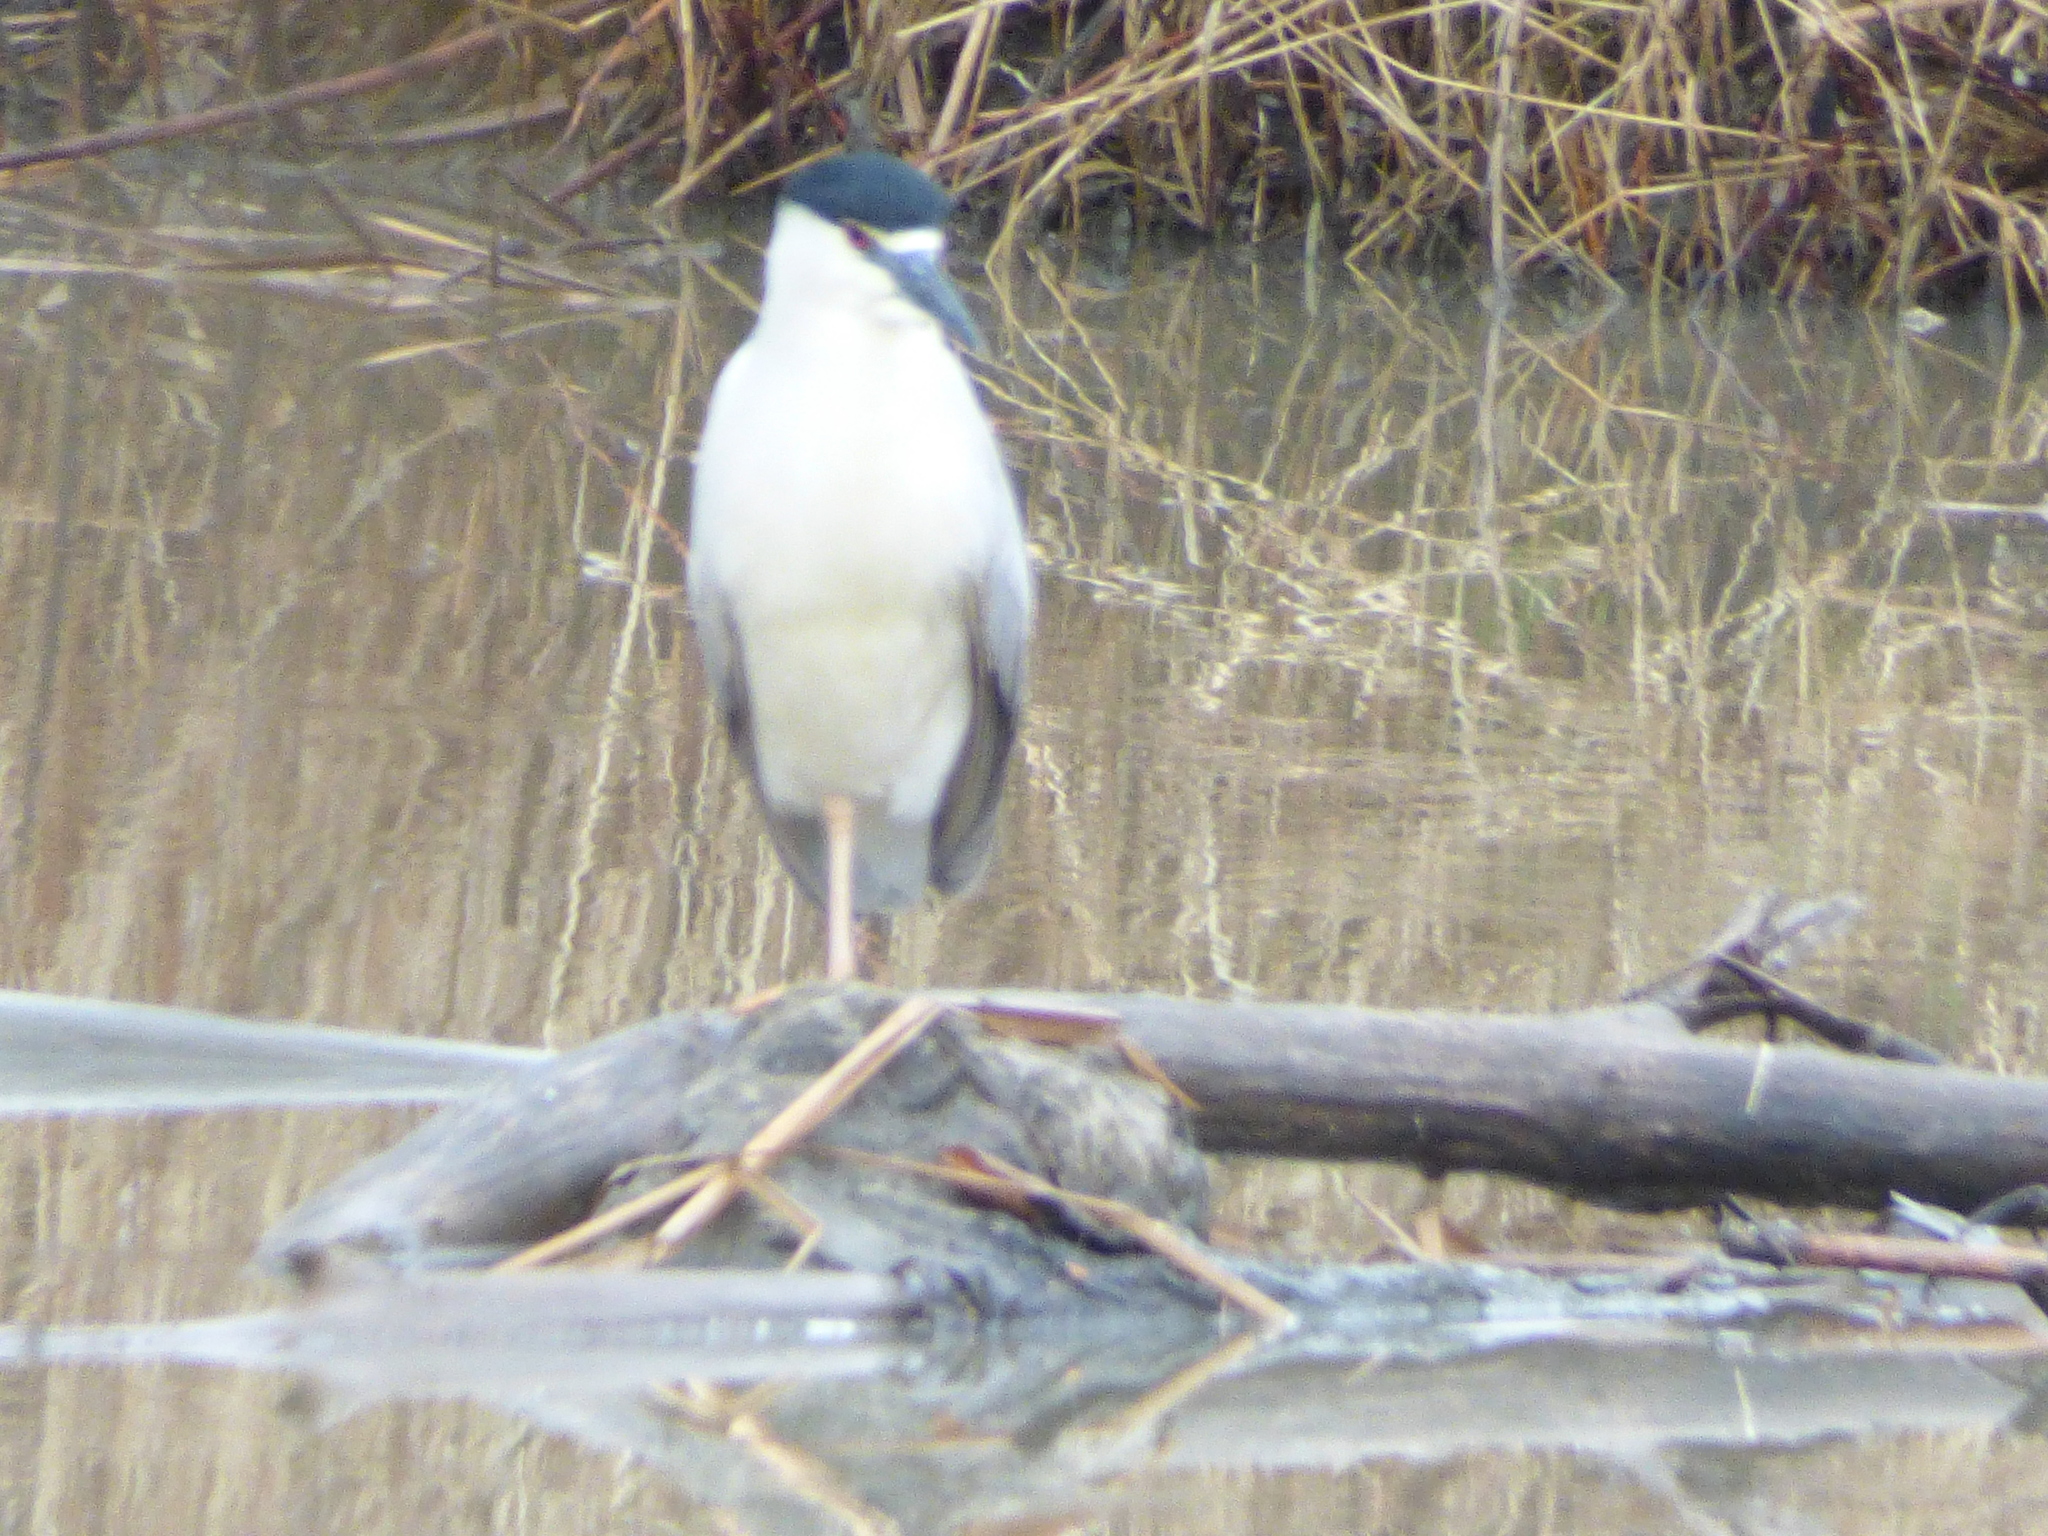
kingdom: Animalia
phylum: Chordata
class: Aves
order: Pelecaniformes
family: Ardeidae
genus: Nycticorax
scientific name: Nycticorax nycticorax
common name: Black-crowned night heron
